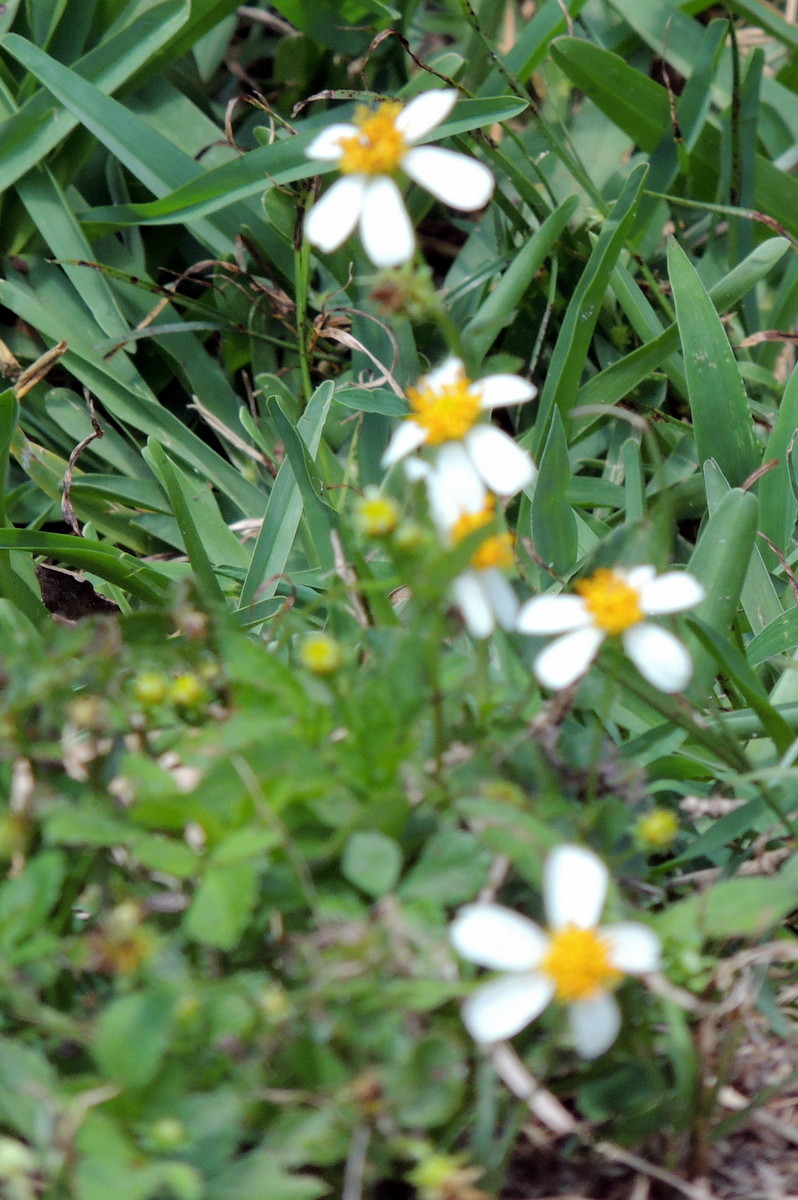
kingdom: Plantae
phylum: Tracheophyta
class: Magnoliopsida
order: Asterales
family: Asteraceae
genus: Bidens
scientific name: Bidens alba
